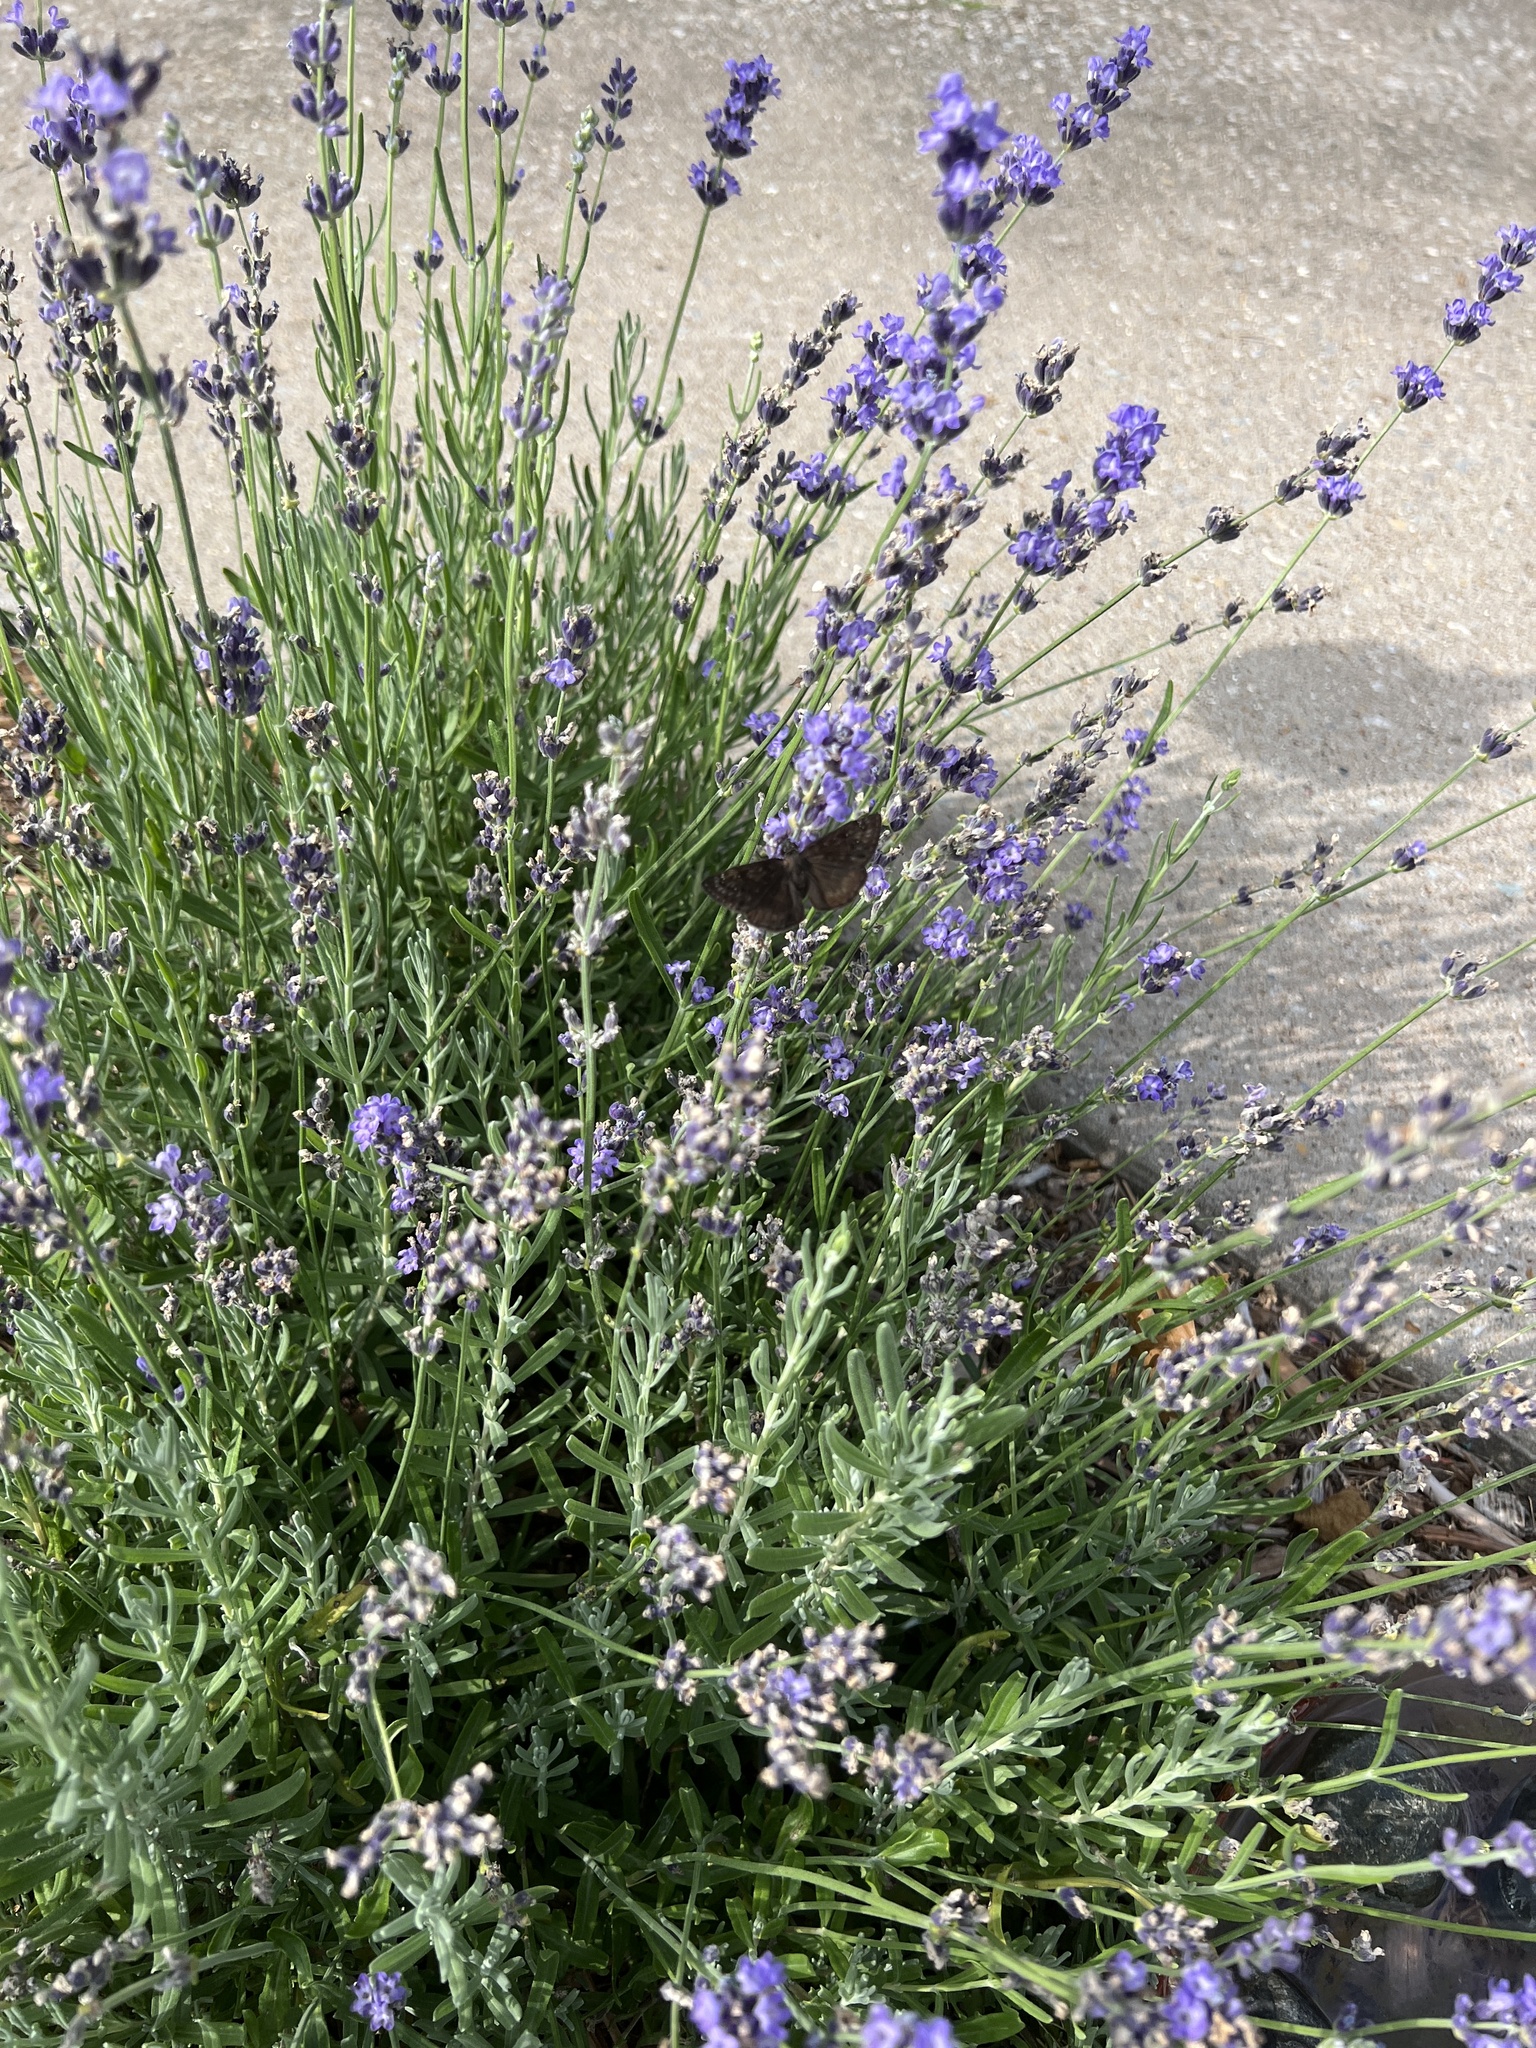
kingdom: Animalia
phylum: Arthropoda
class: Insecta
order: Lepidoptera
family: Hesperiidae
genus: Erynnis
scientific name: Erynnis horatius
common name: Horace's duskywing
